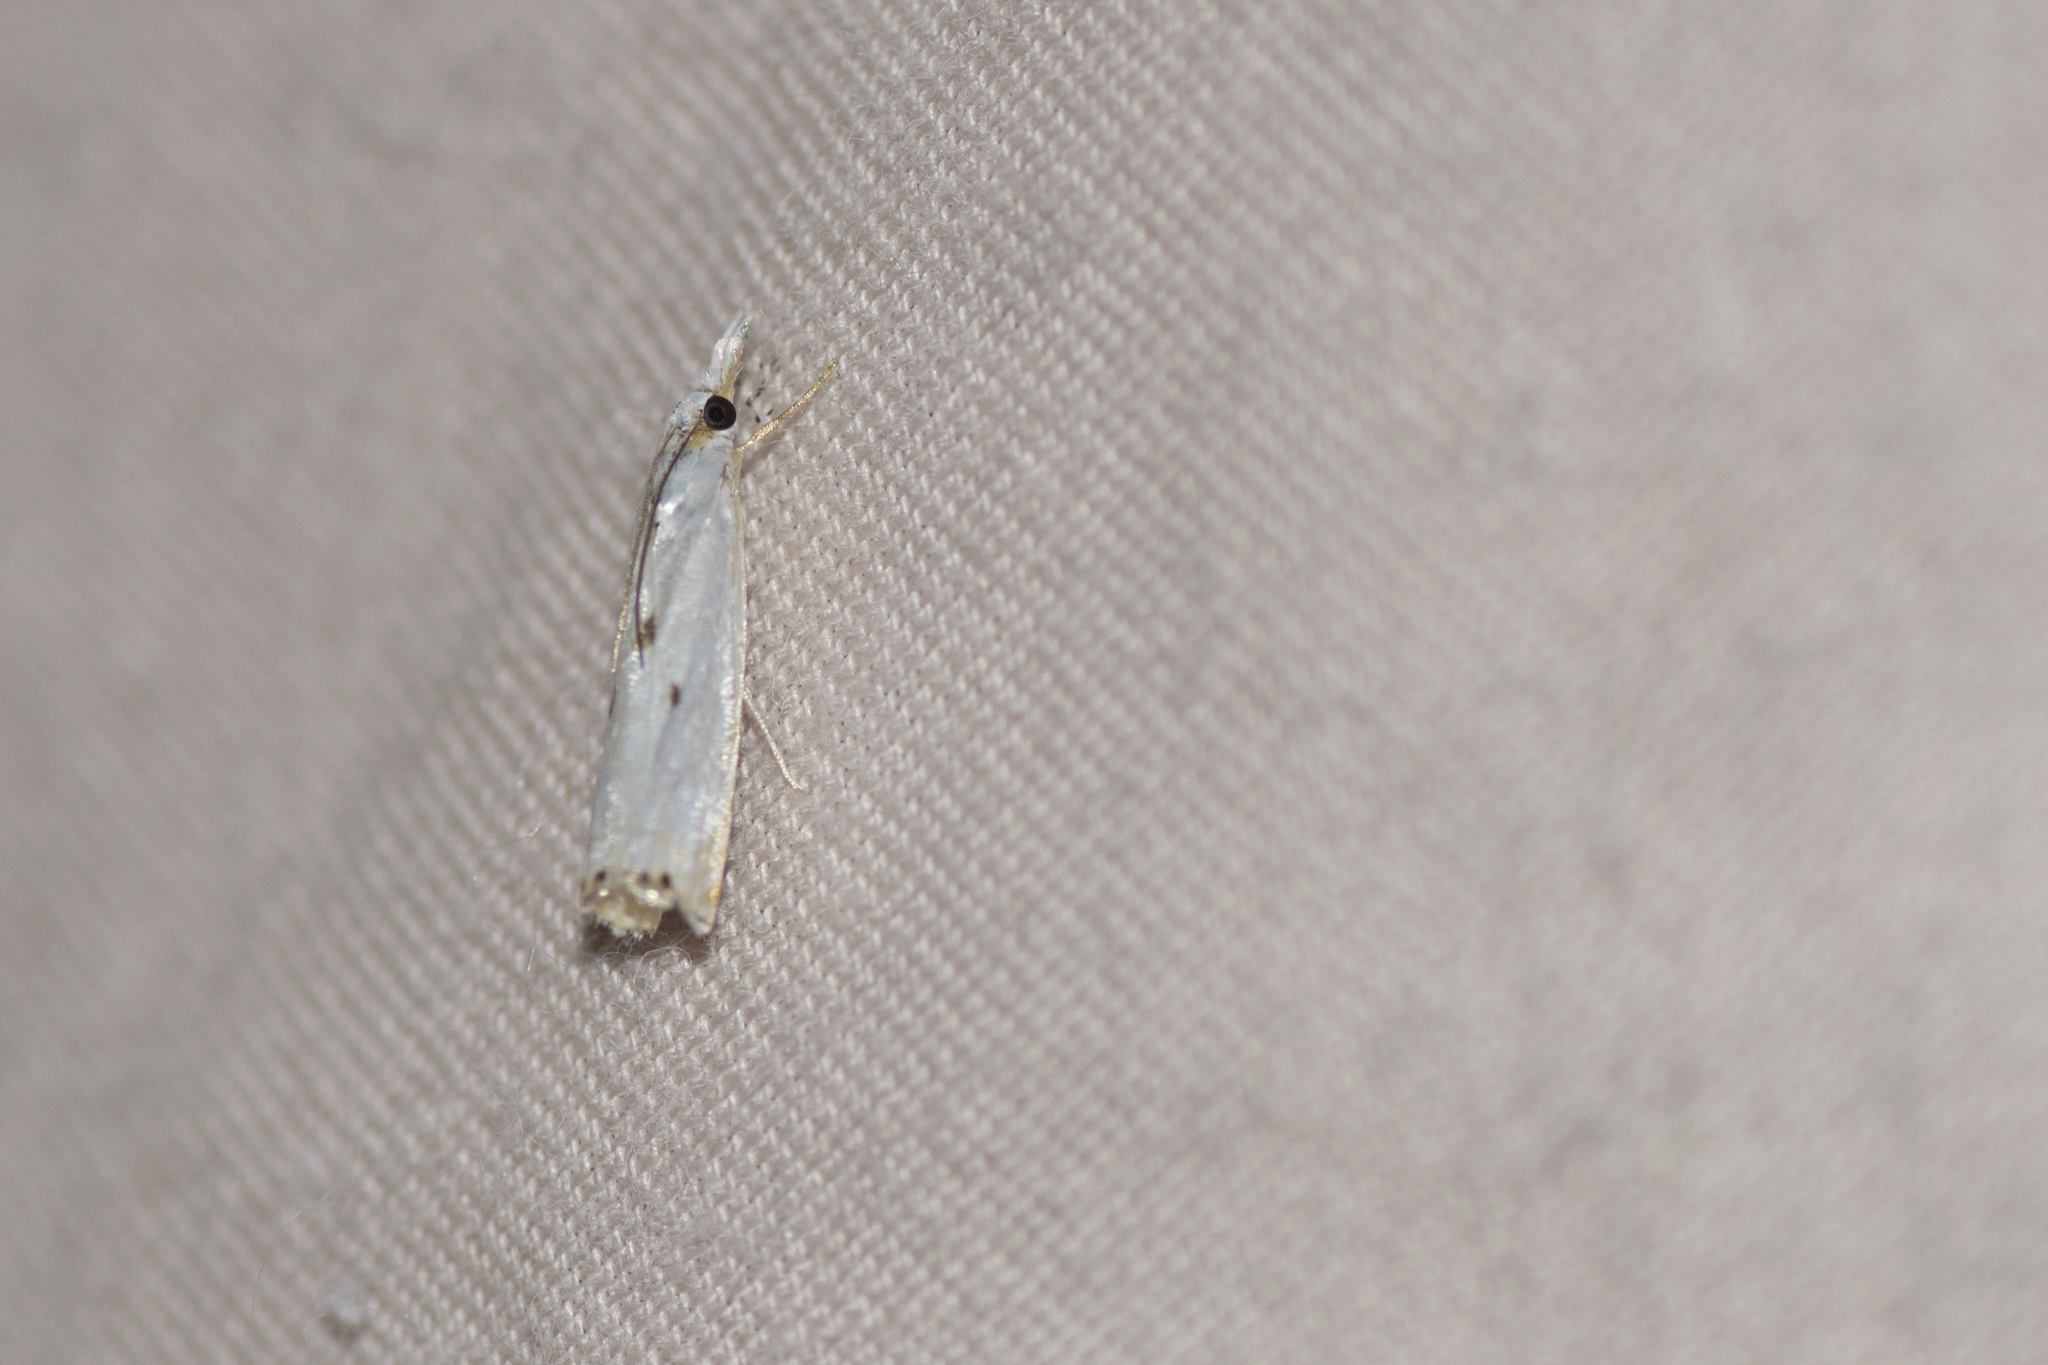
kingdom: Animalia
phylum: Arthropoda
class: Insecta
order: Lepidoptera
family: Crambidae
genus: Microcrambus
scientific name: Microcrambus biguttellus
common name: Gold-stripe grass-veneer moth
